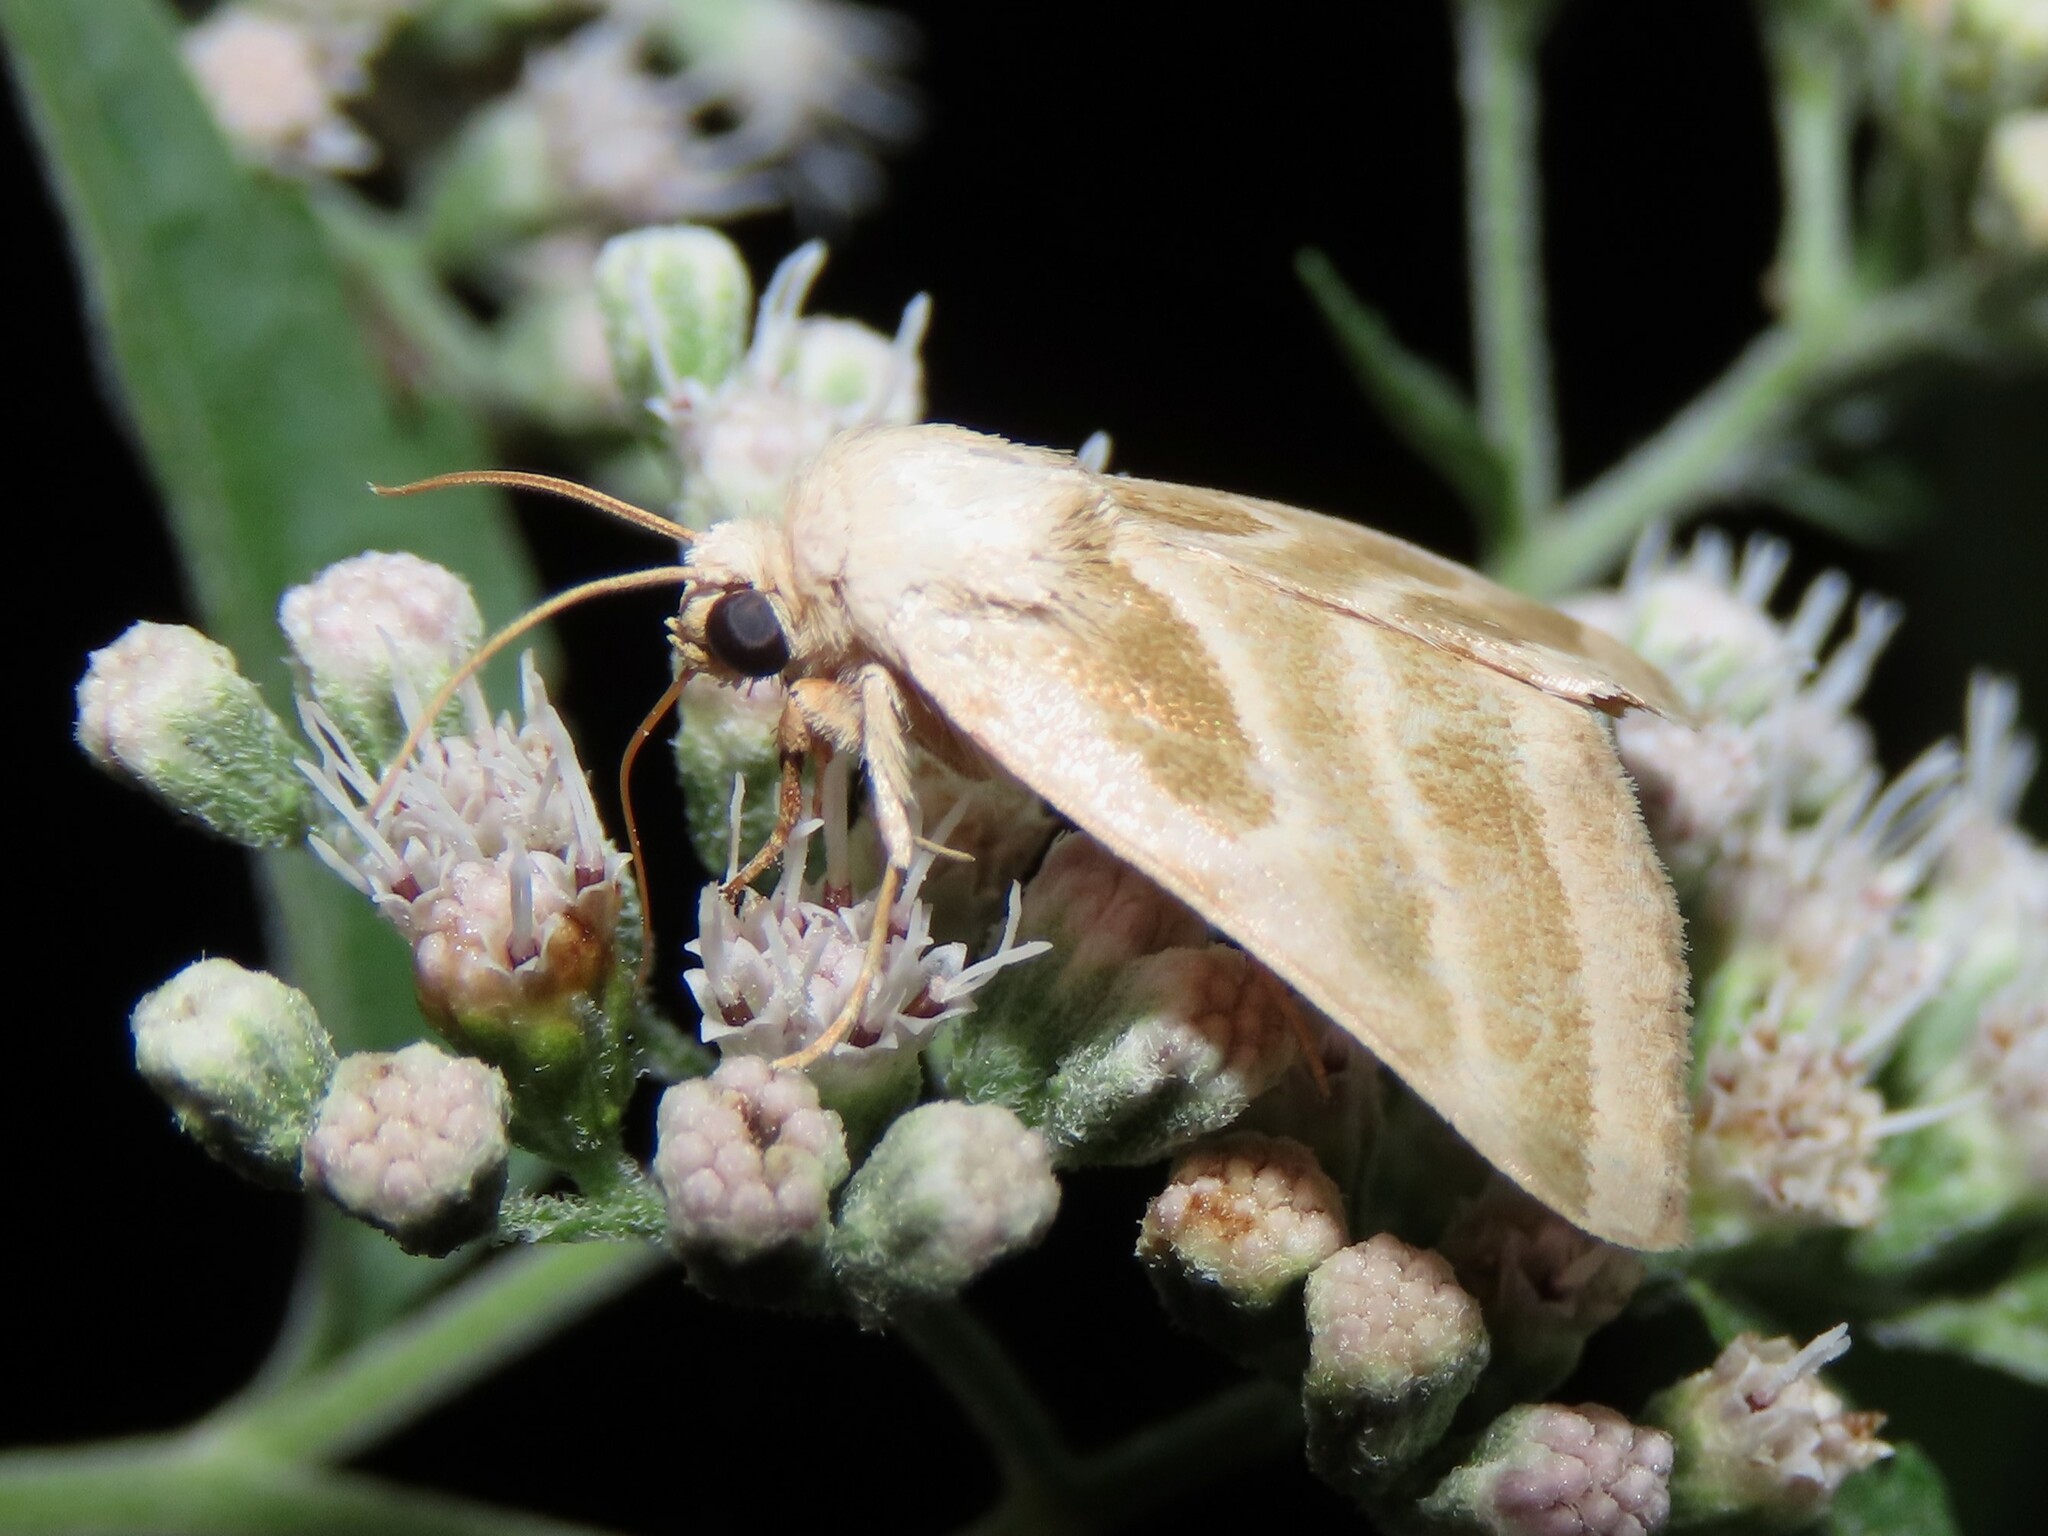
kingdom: Animalia
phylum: Arthropoda
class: Insecta
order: Lepidoptera
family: Noctuidae
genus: Schinia
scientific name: Schinia trifascia
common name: Three-lined flower moth
